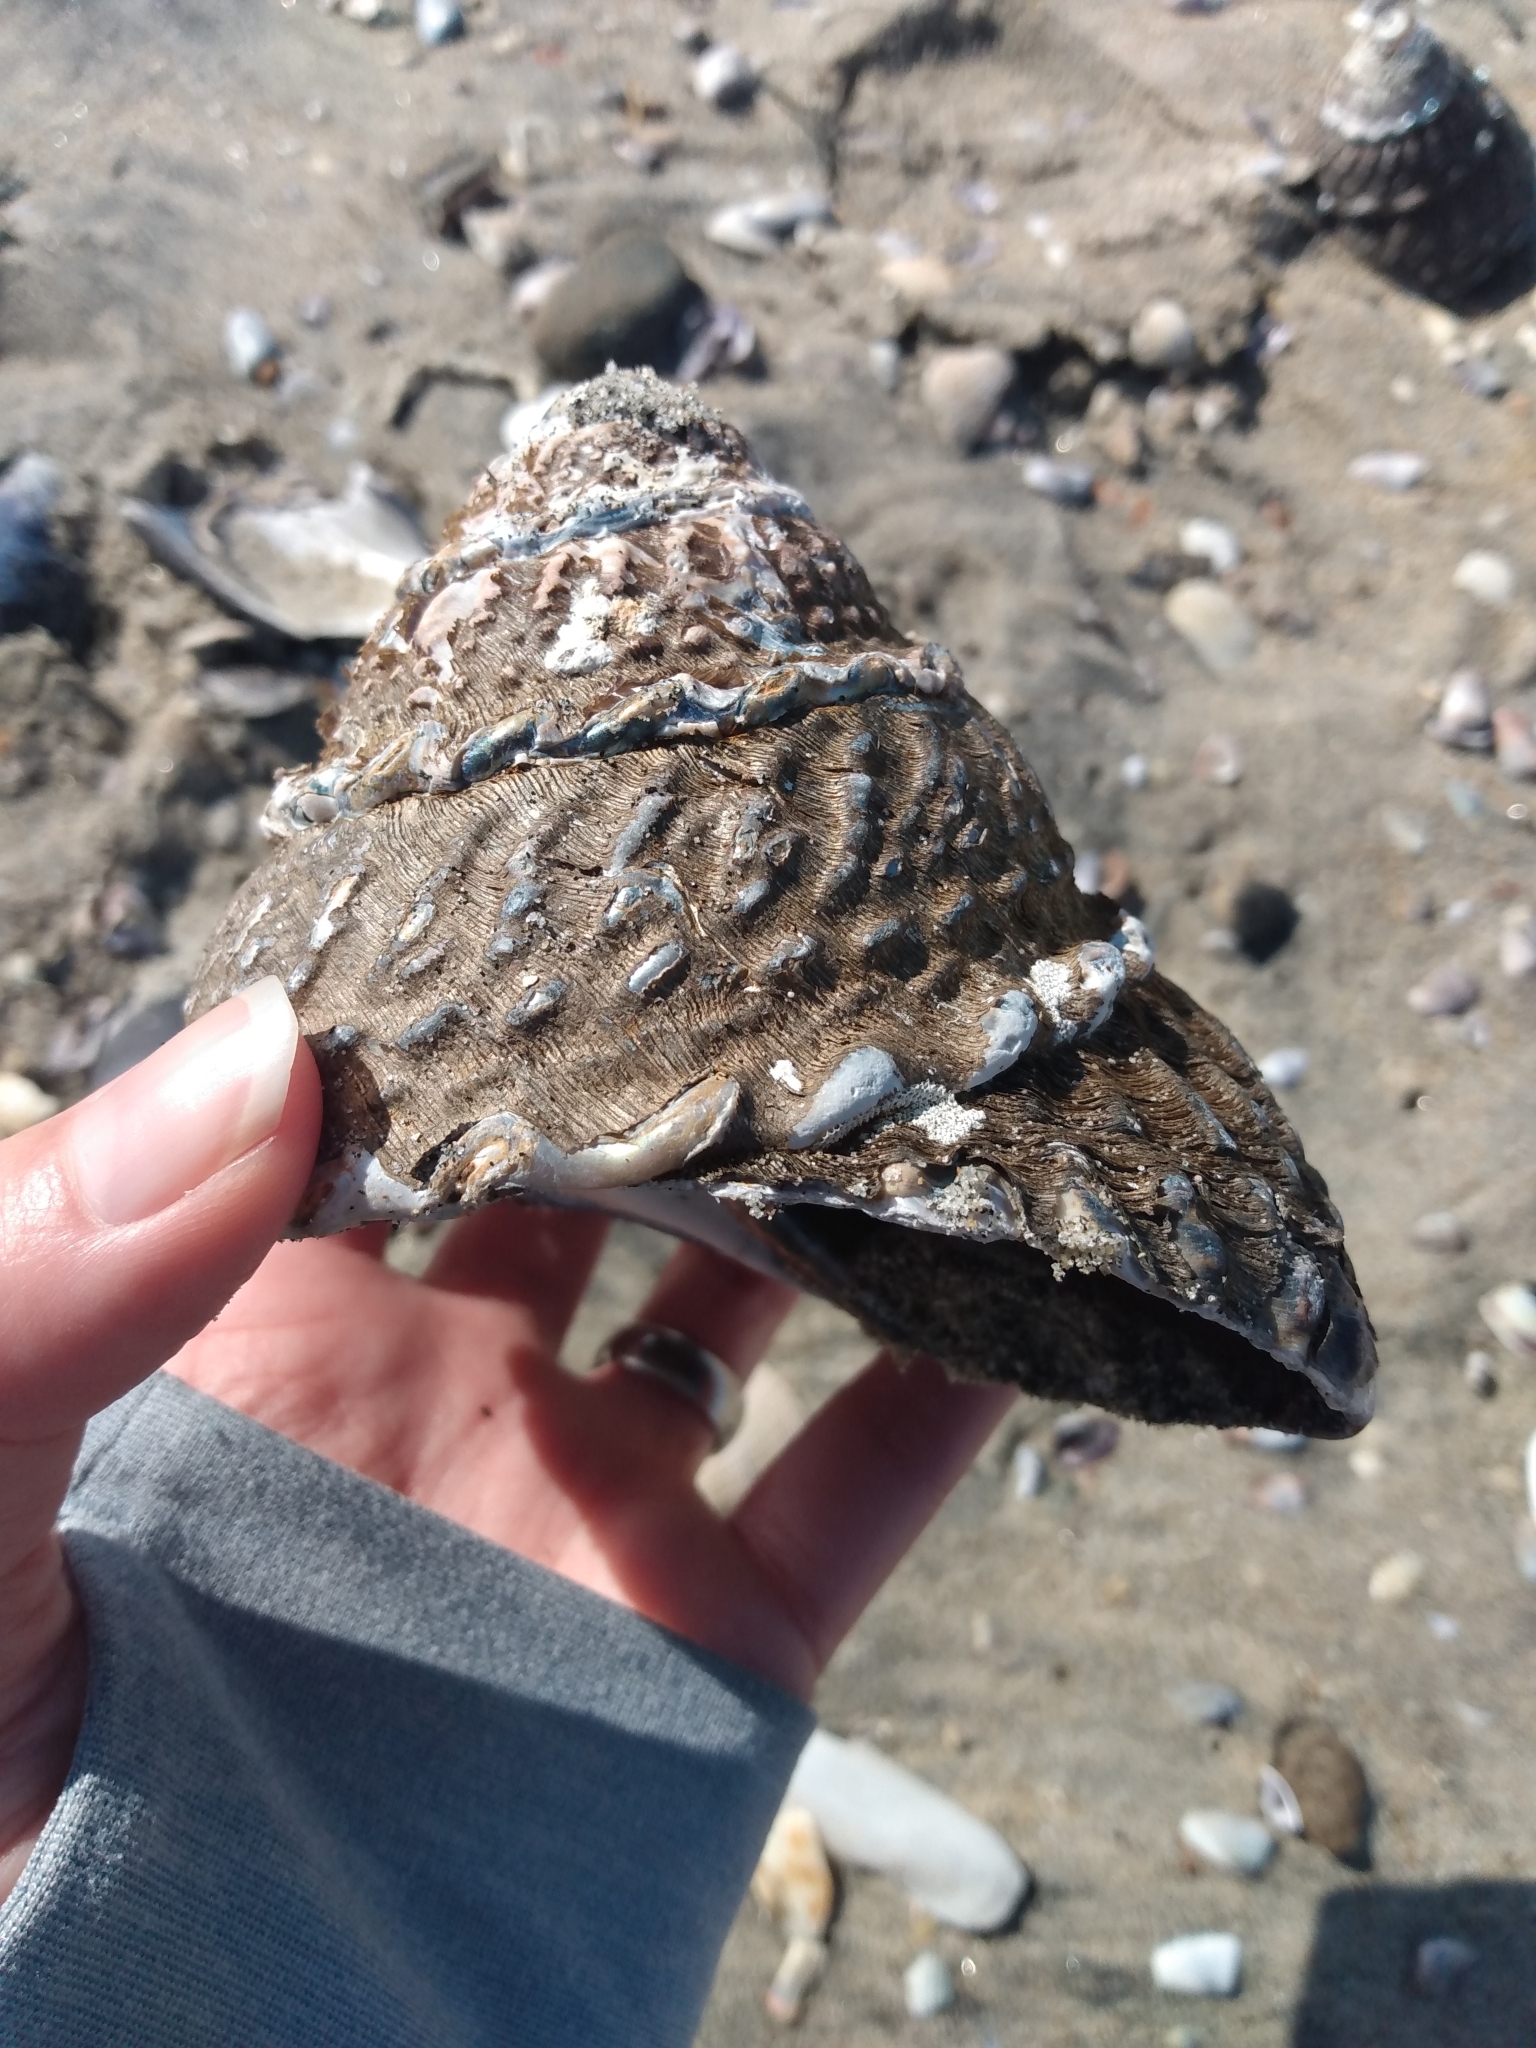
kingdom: Animalia
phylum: Mollusca
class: Gastropoda
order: Trochida
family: Turbinidae
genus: Megastraea
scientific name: Megastraea undosa
